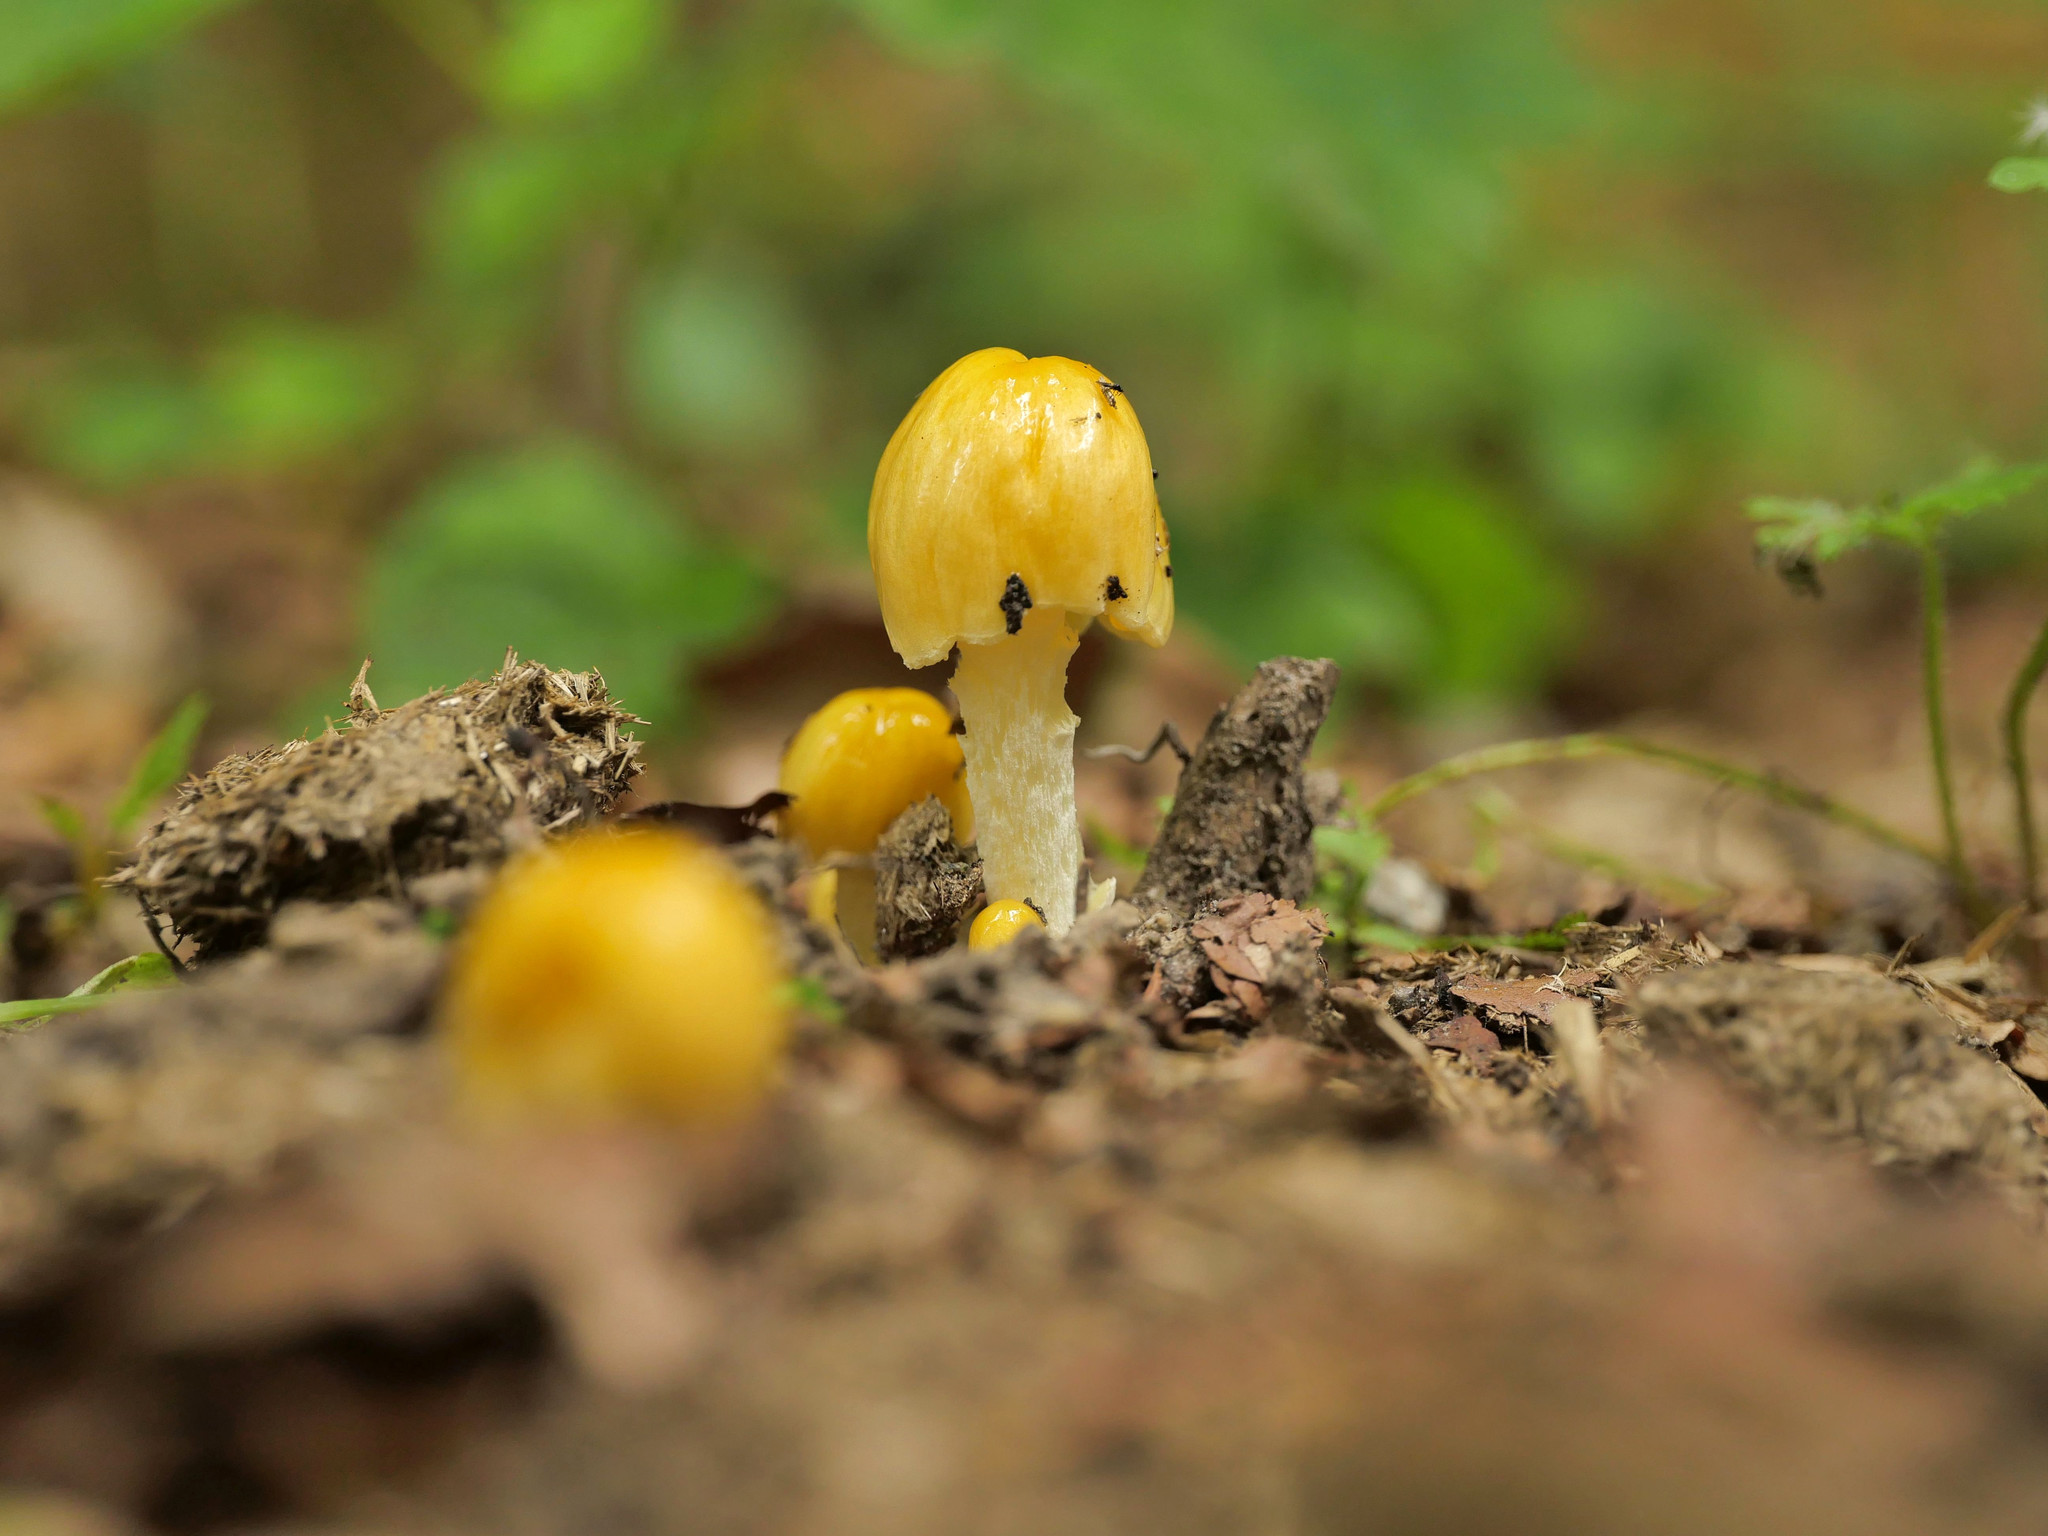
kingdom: Fungi
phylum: Basidiomycota
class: Agaricomycetes
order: Agaricales
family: Bolbitiaceae
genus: Bolbitius
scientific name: Bolbitius titubans
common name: Yellow fieldcap
